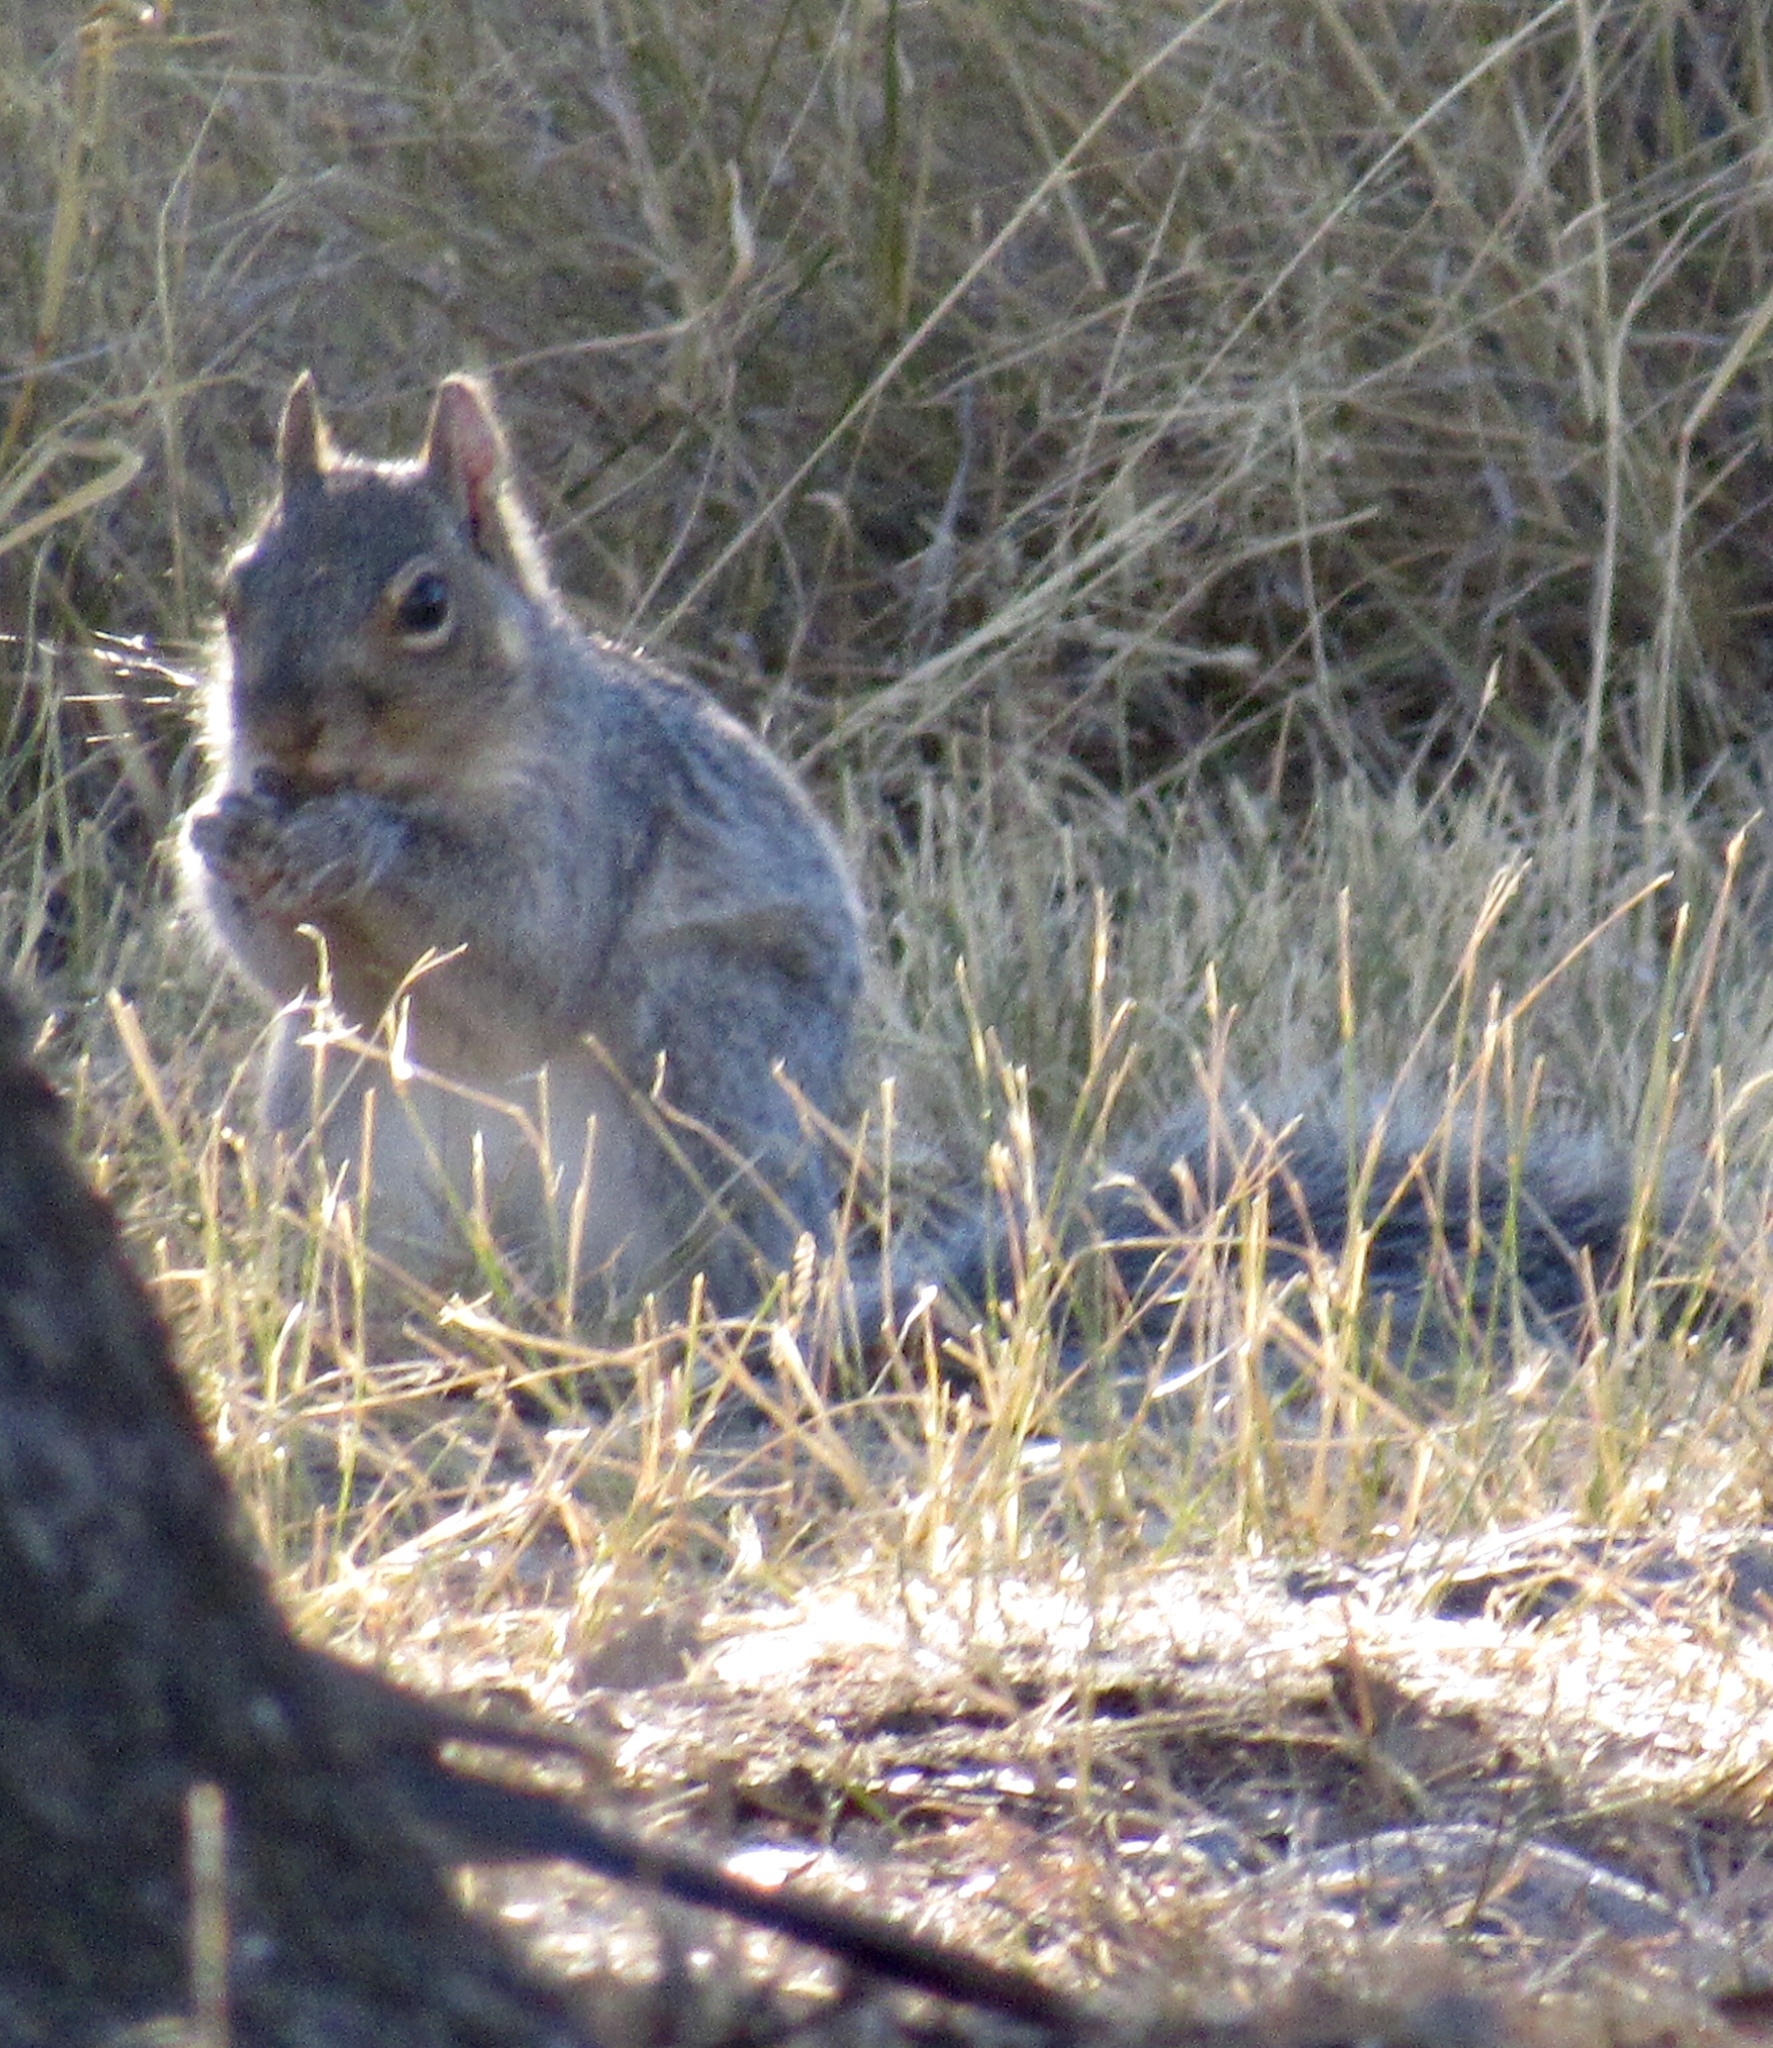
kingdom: Animalia
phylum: Chordata
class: Mammalia
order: Rodentia
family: Sciuridae
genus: Sciurus
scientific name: Sciurus arizonensis
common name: Arizona gray squirrel
